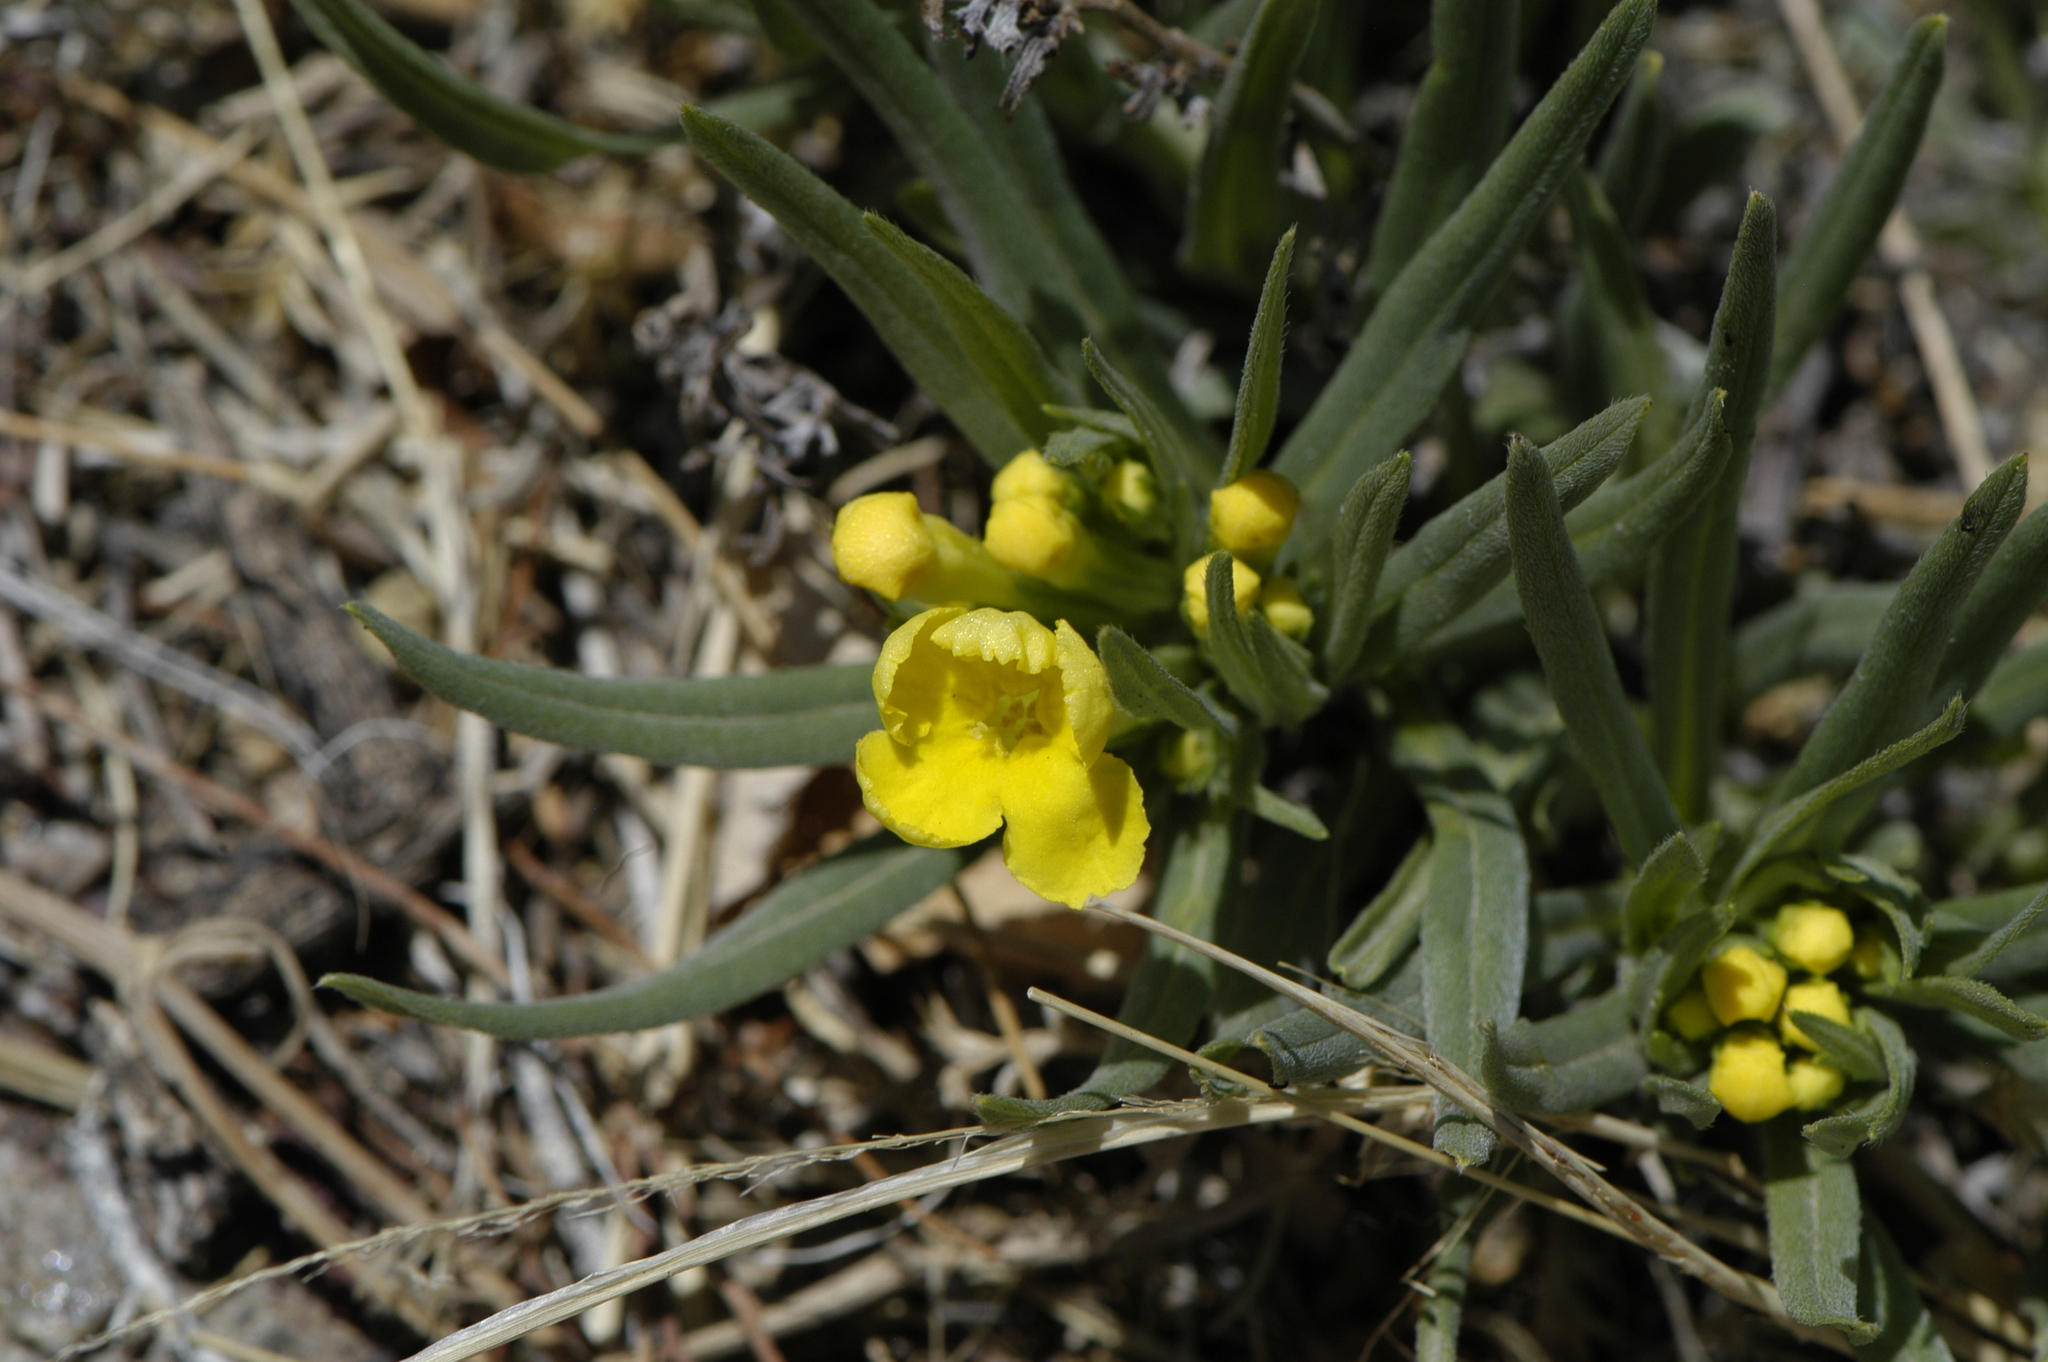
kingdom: Plantae
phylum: Tracheophyta
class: Magnoliopsida
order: Boraginales
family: Boraginaceae
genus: Lithospermum
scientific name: Lithospermum incisum
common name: Fringed gromwell
